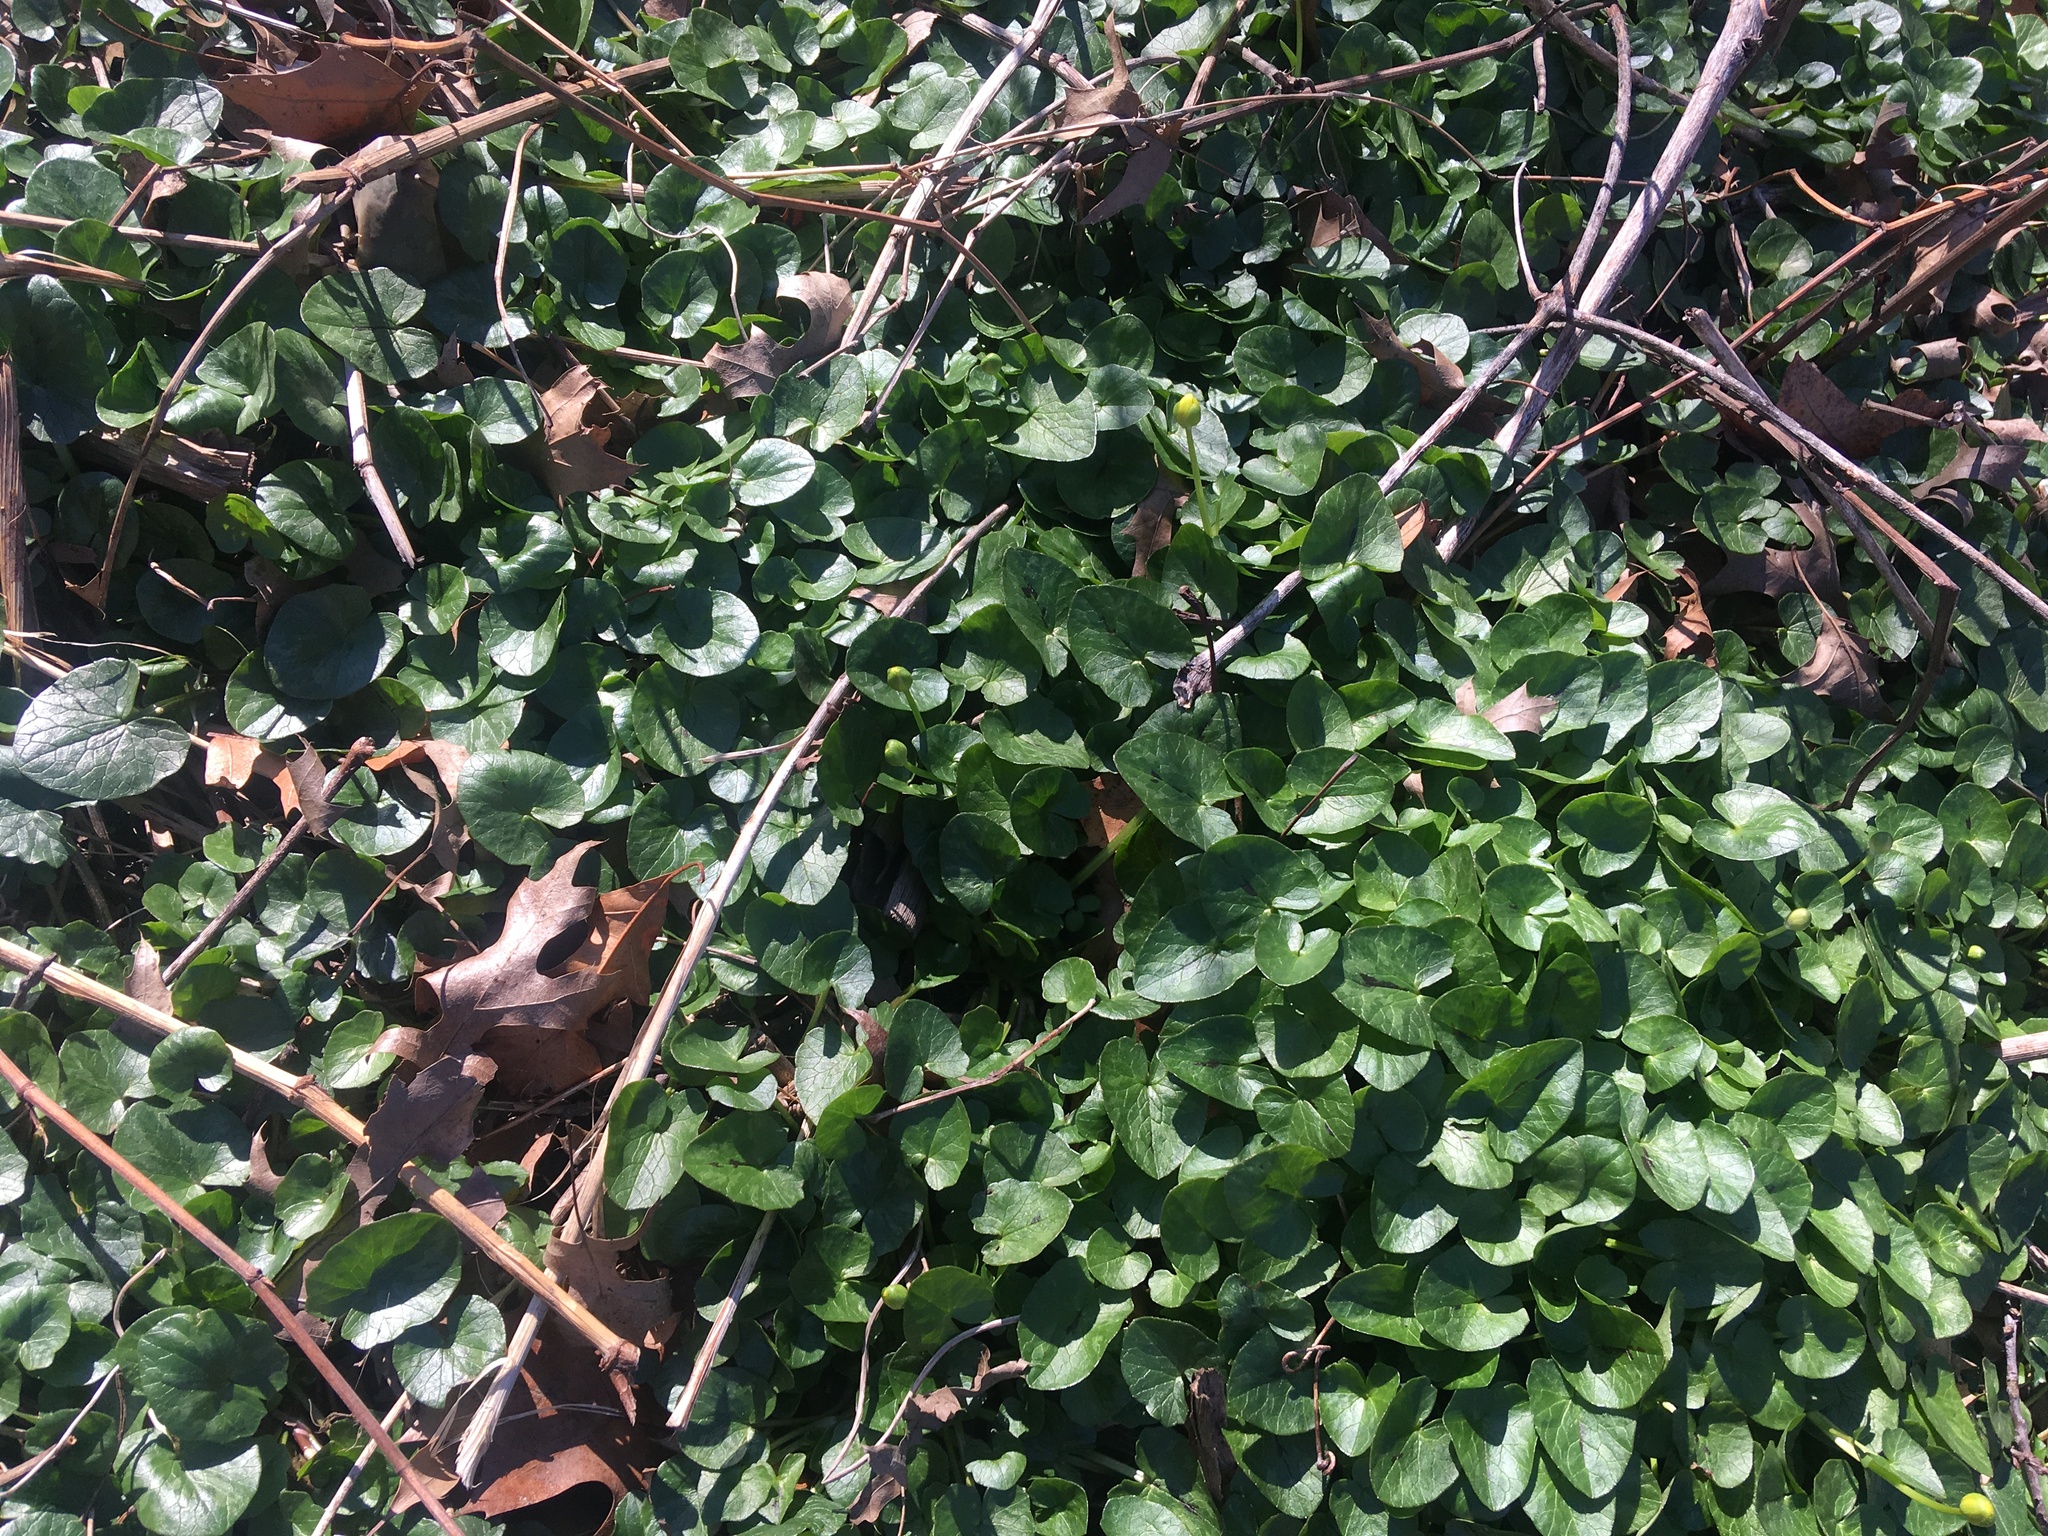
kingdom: Plantae
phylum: Tracheophyta
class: Magnoliopsida
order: Ranunculales
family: Ranunculaceae
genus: Ficaria
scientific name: Ficaria verna
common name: Lesser celandine
